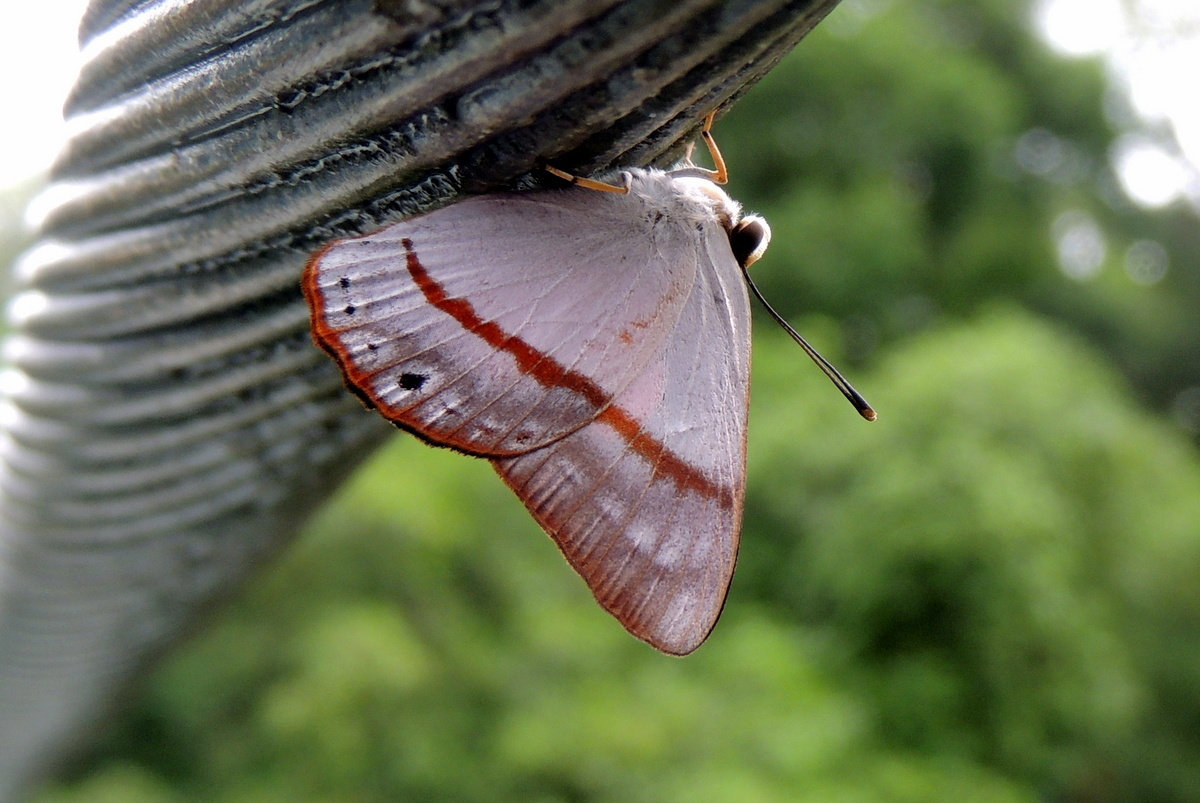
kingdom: Animalia
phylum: Arthropoda
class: Insecta
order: Lepidoptera
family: Lycaenidae
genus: Euselasia
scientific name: Euselasia
